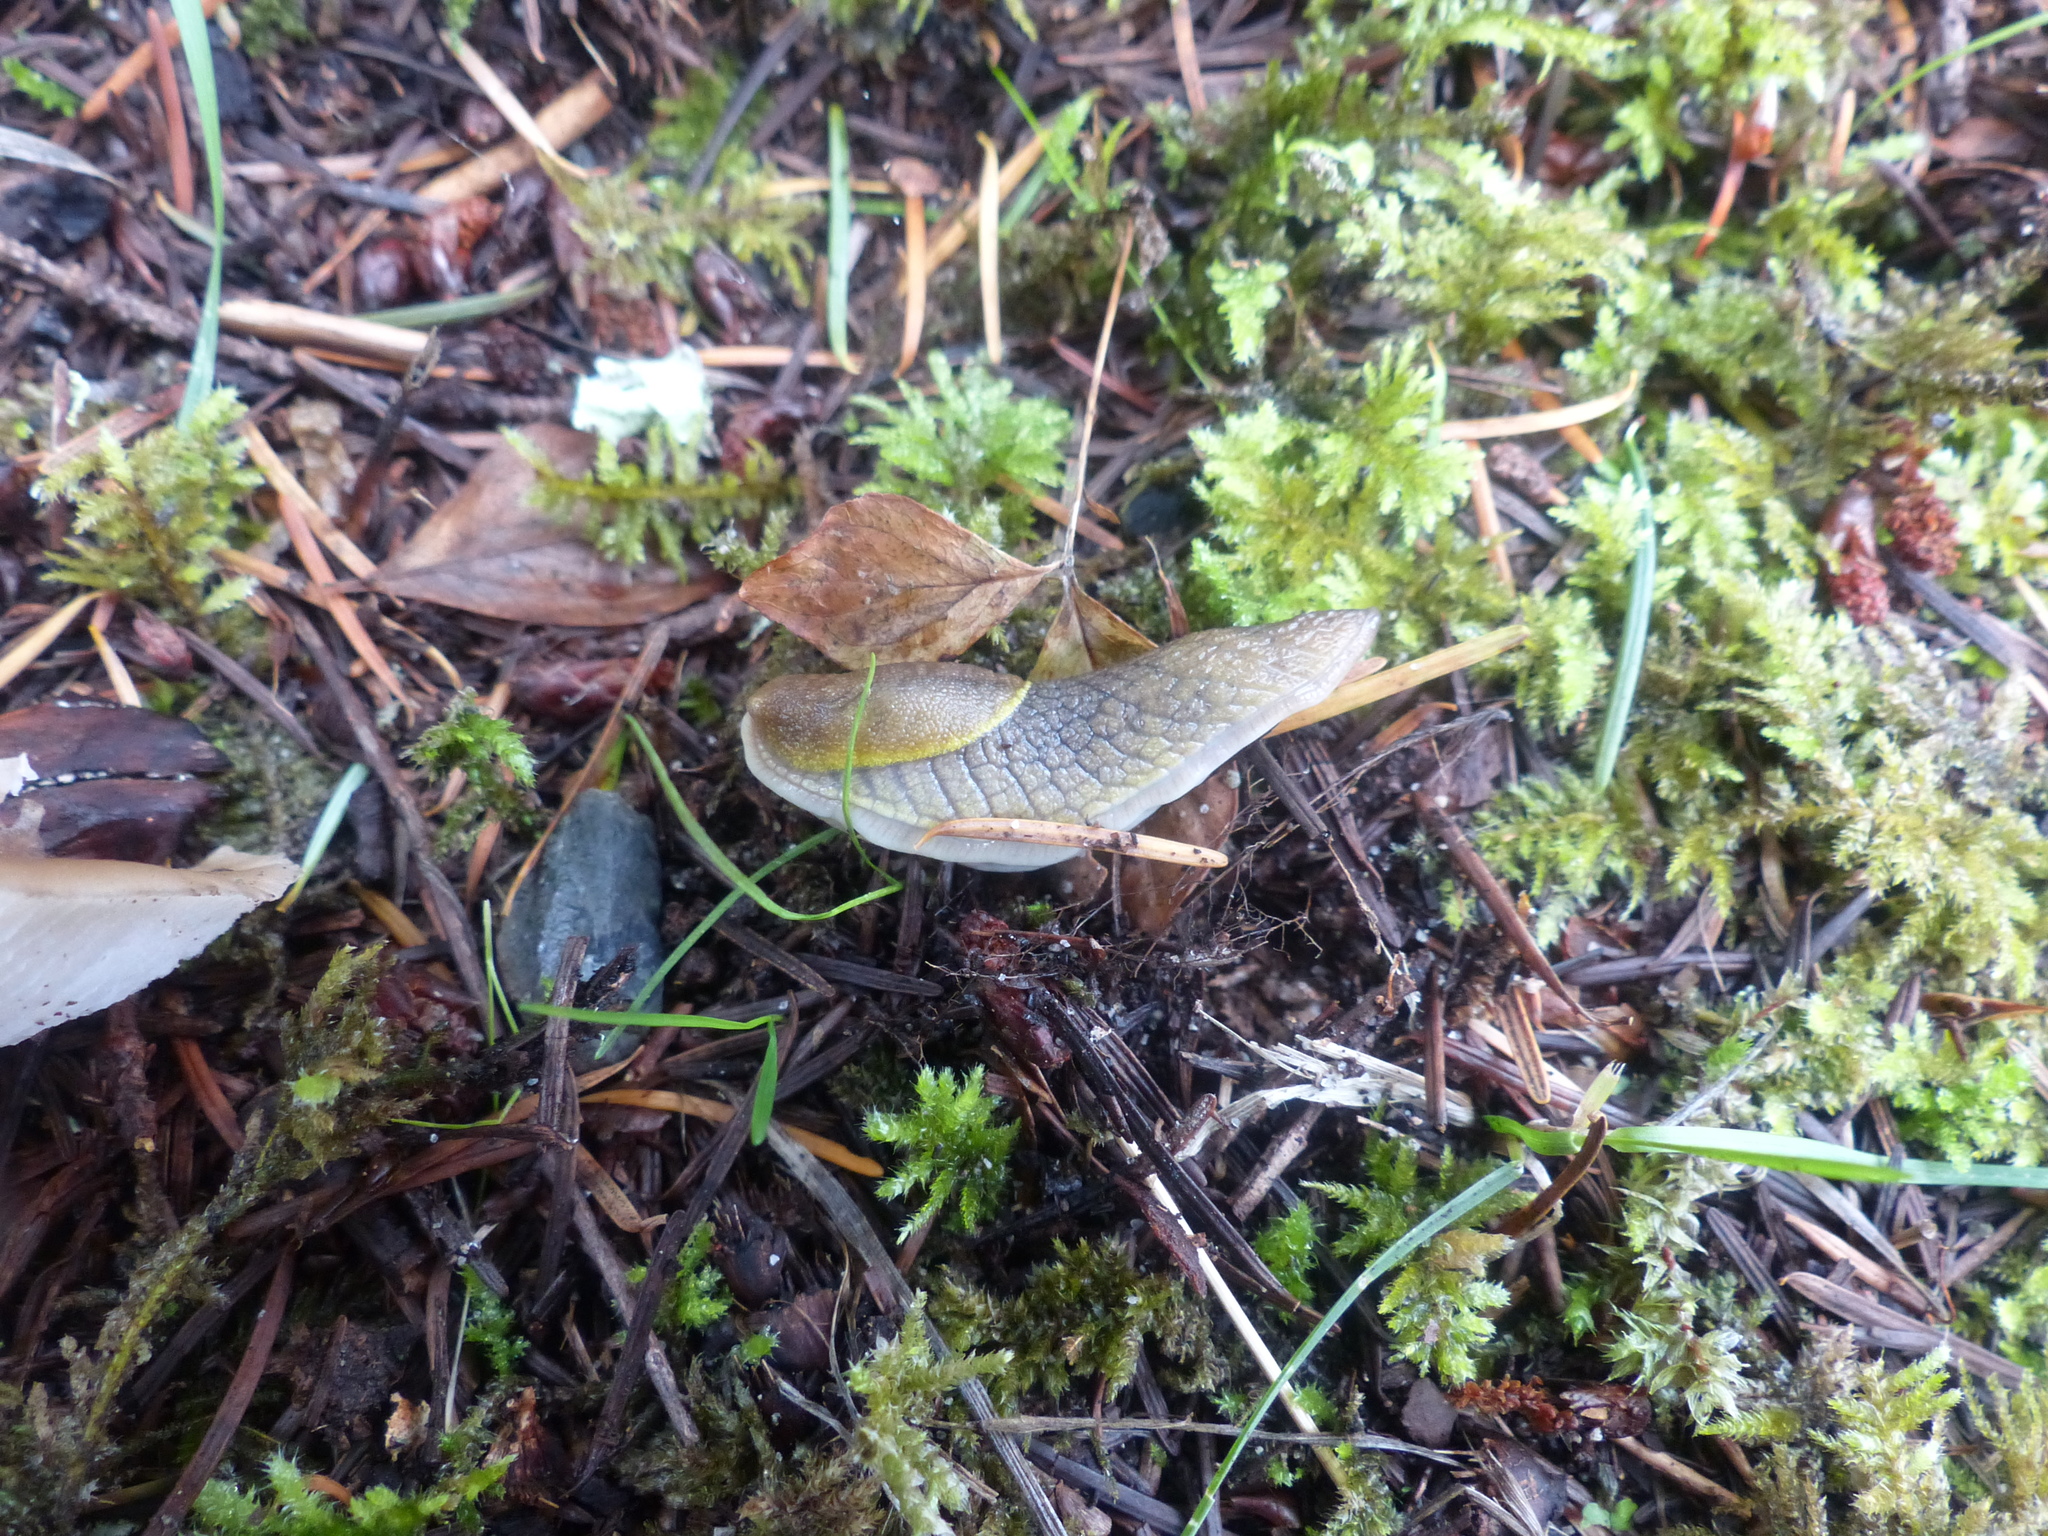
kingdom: Animalia
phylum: Mollusca
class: Gastropoda
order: Stylommatophora
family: Ariolimacidae
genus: Prophysaon
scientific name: Prophysaon foliolatum
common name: Yellow-bordered taildropper
